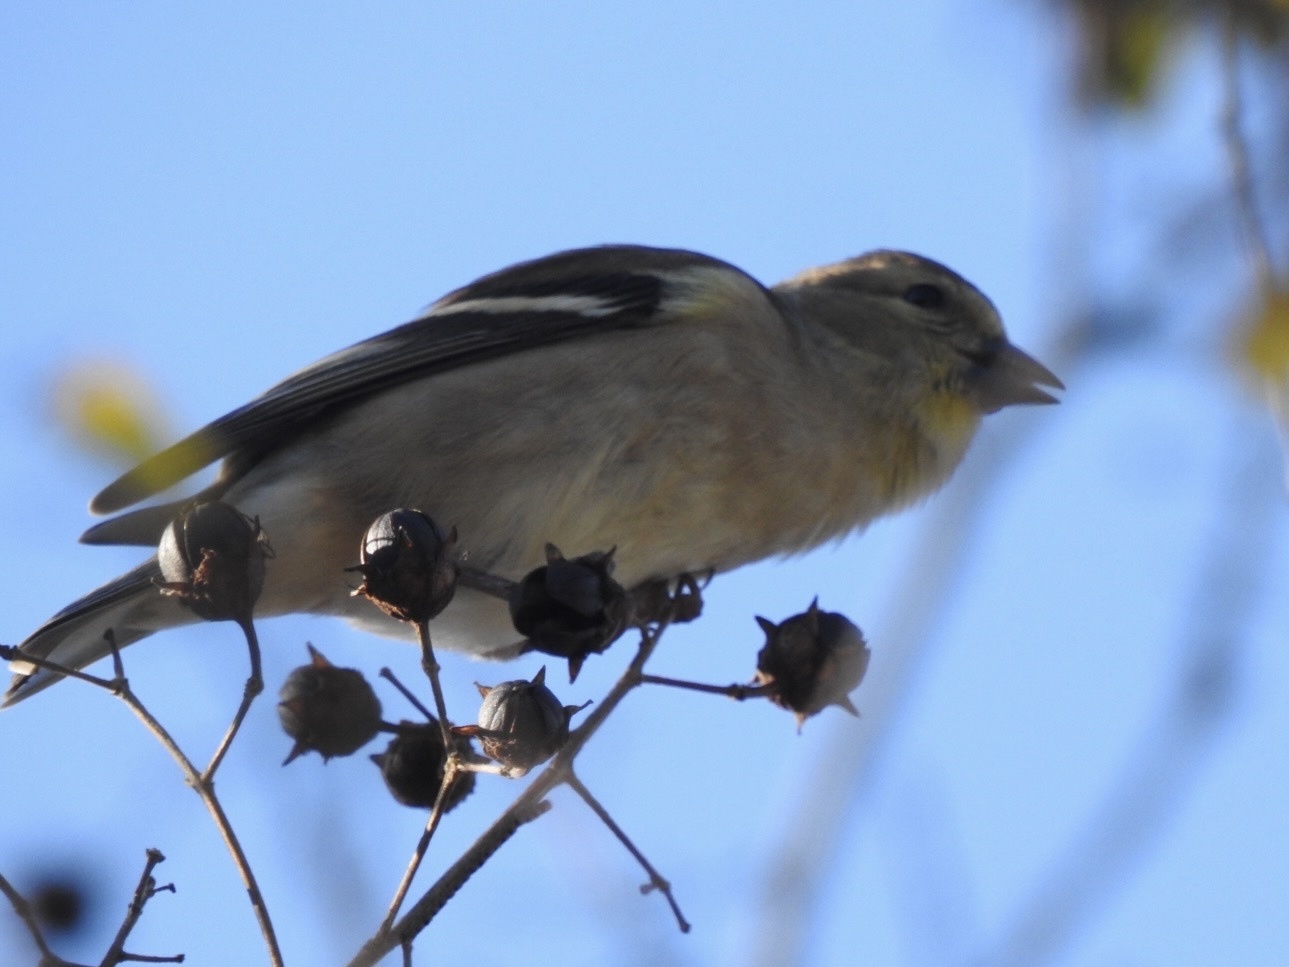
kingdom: Animalia
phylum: Chordata
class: Aves
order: Passeriformes
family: Fringillidae
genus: Spinus
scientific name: Spinus tristis
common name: American goldfinch
